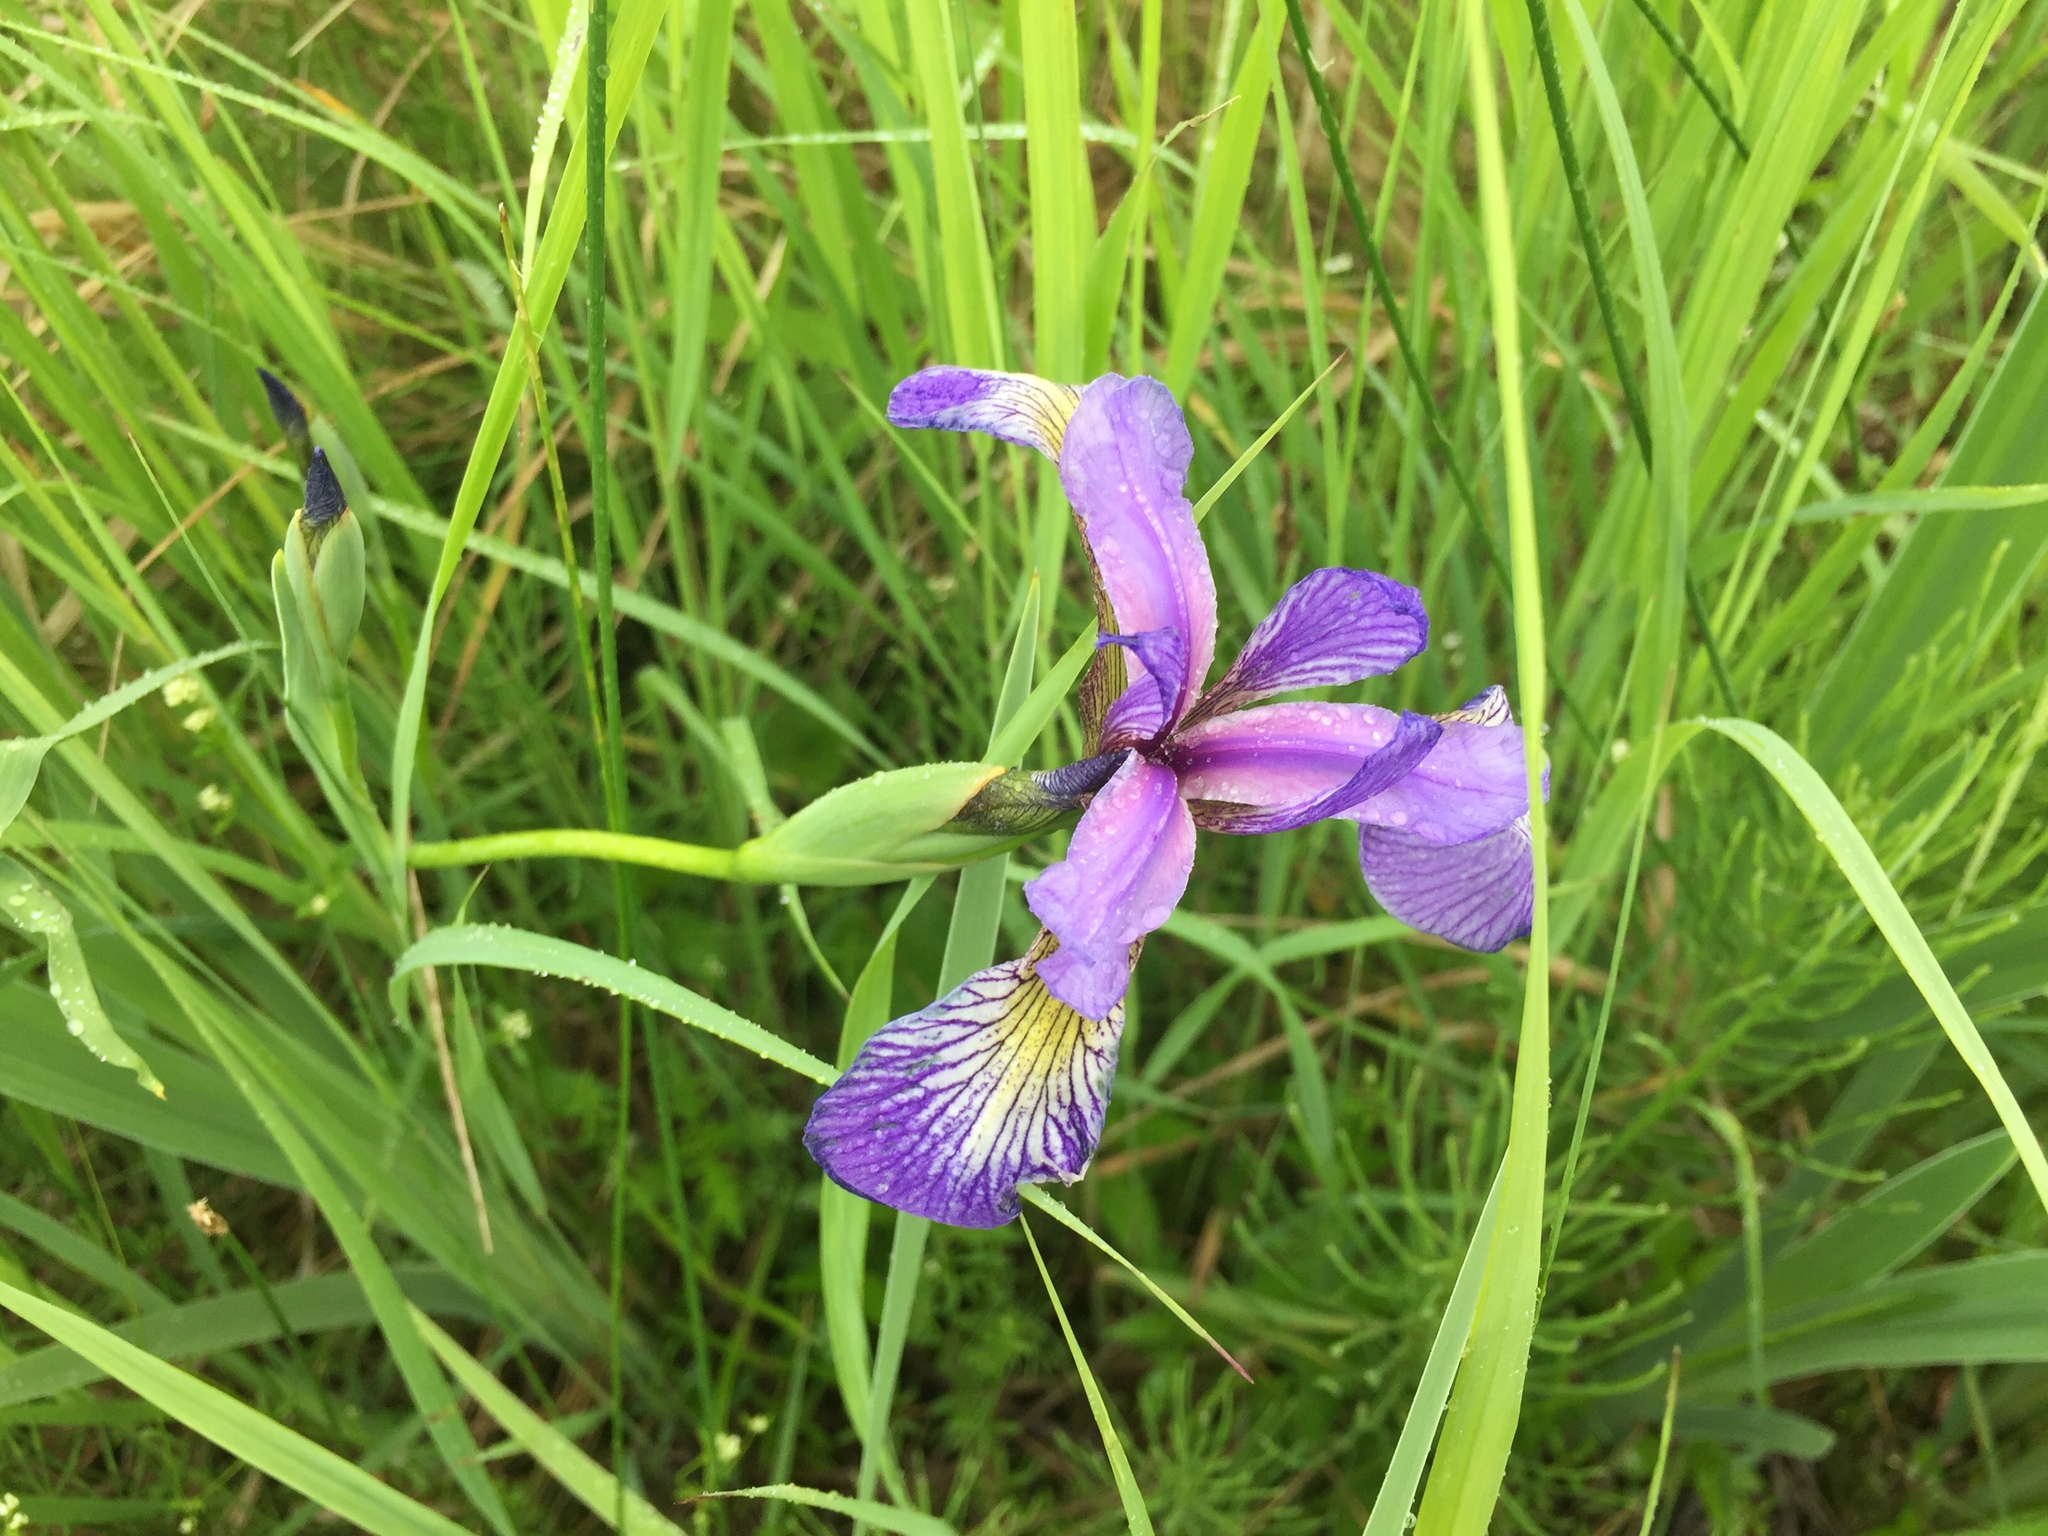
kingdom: Plantae
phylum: Tracheophyta
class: Liliopsida
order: Asparagales
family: Iridaceae
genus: Iris
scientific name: Iris versicolor
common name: Purple iris
